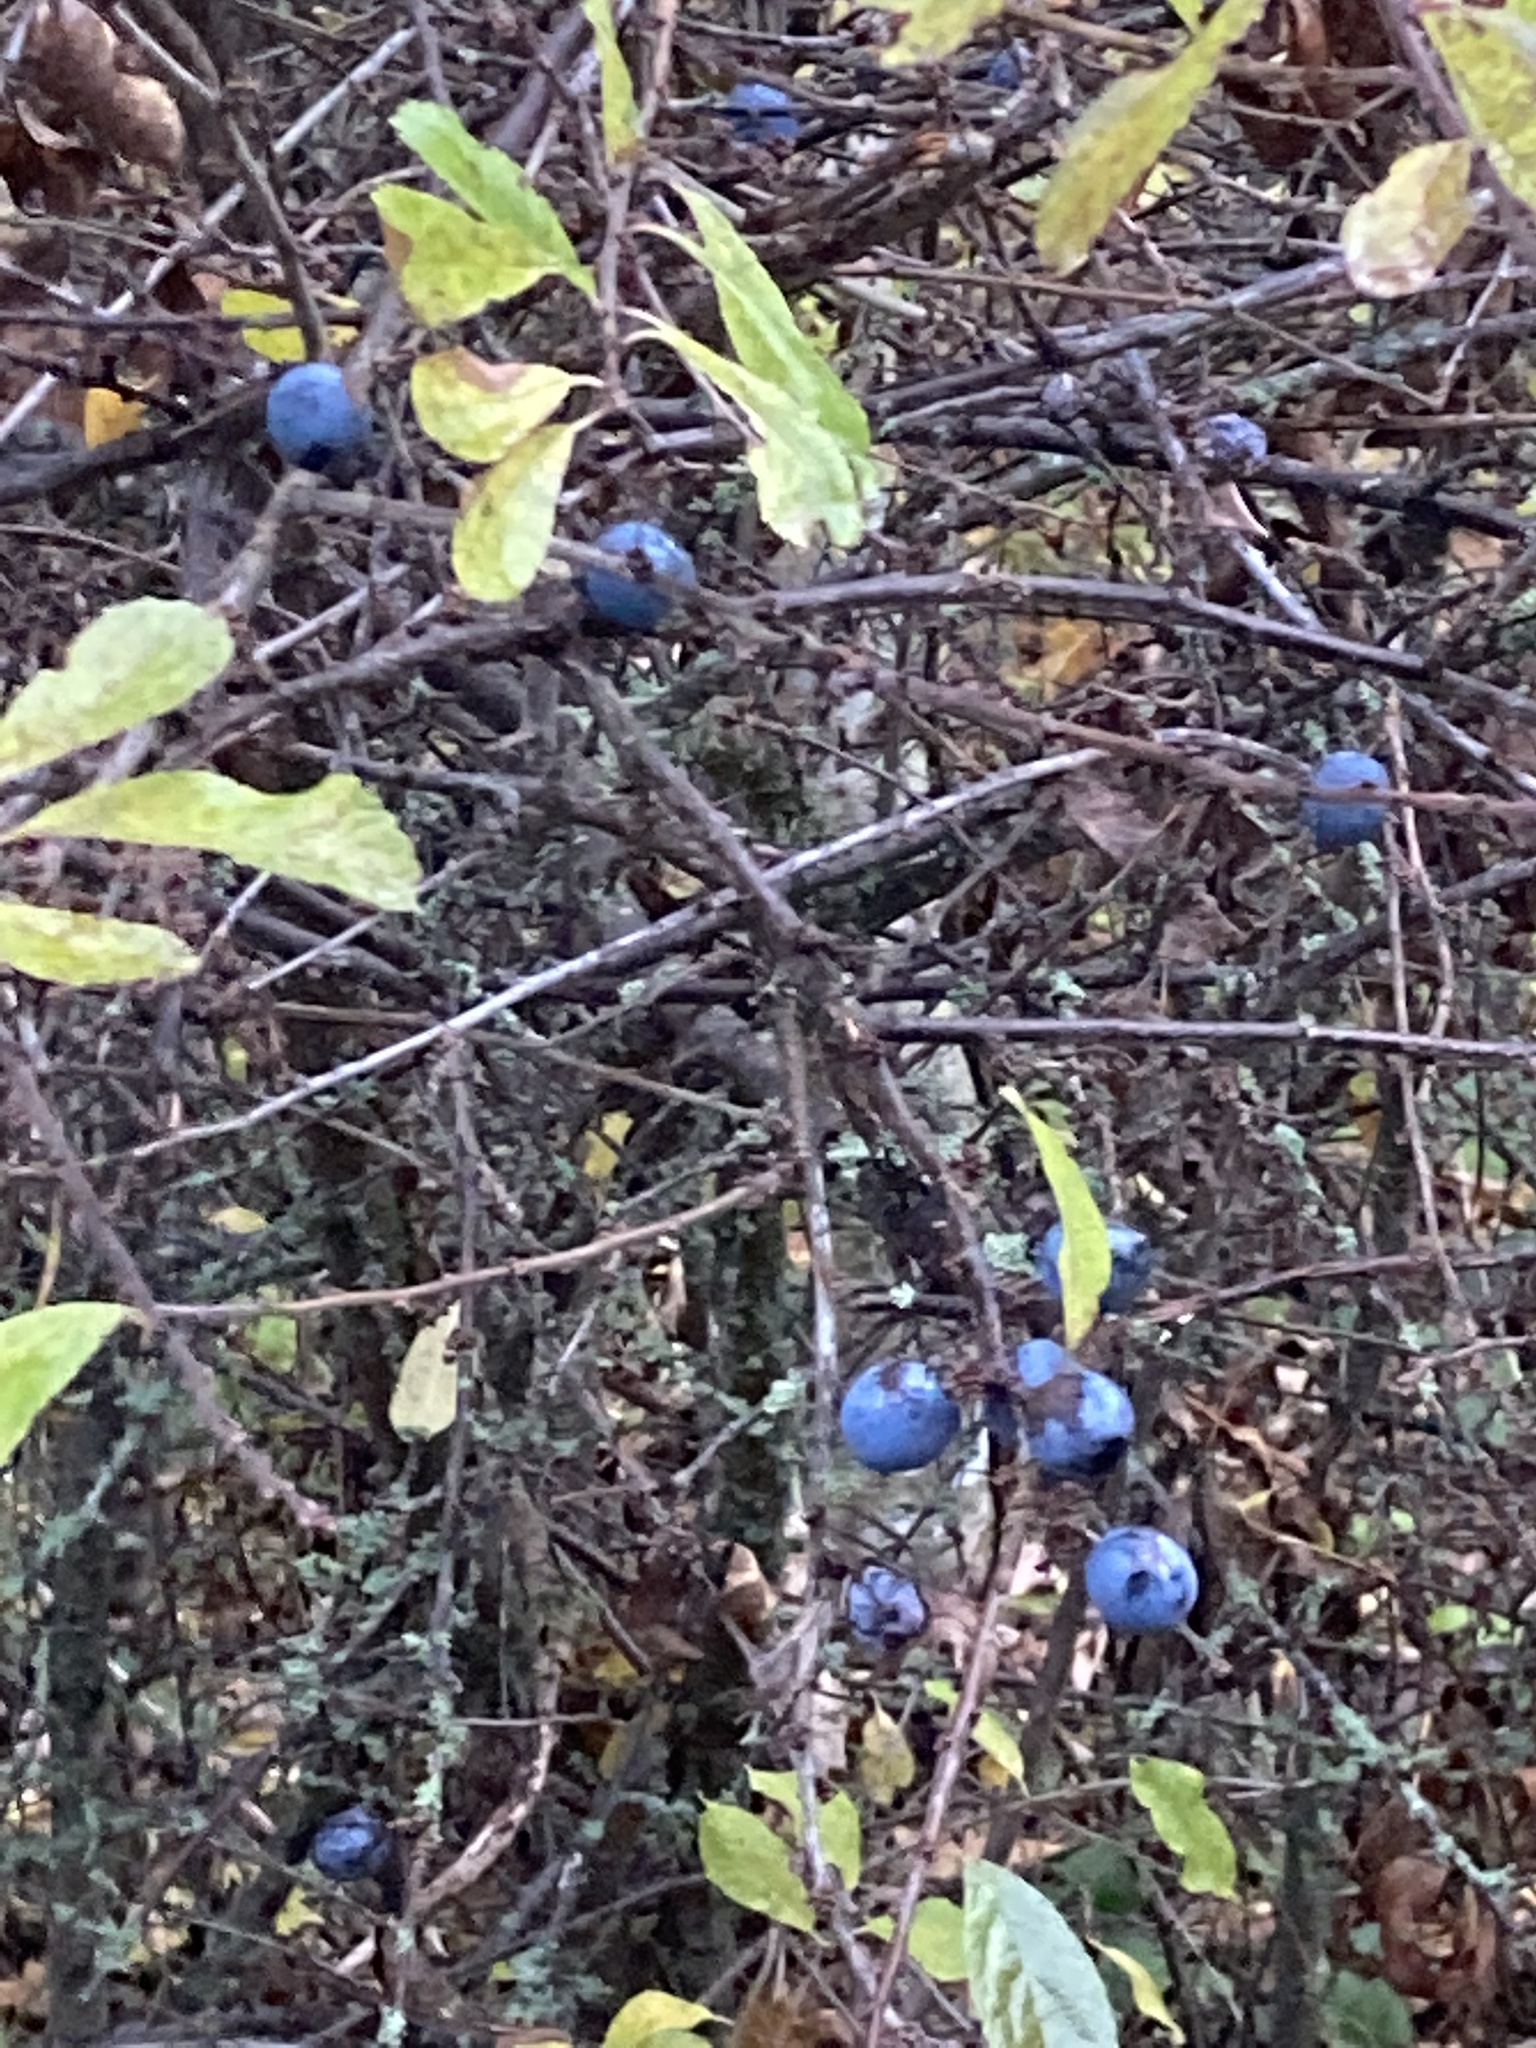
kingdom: Plantae
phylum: Tracheophyta
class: Magnoliopsida
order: Rosales
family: Rosaceae
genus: Prunus
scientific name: Prunus spinosa
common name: Blackthorn
